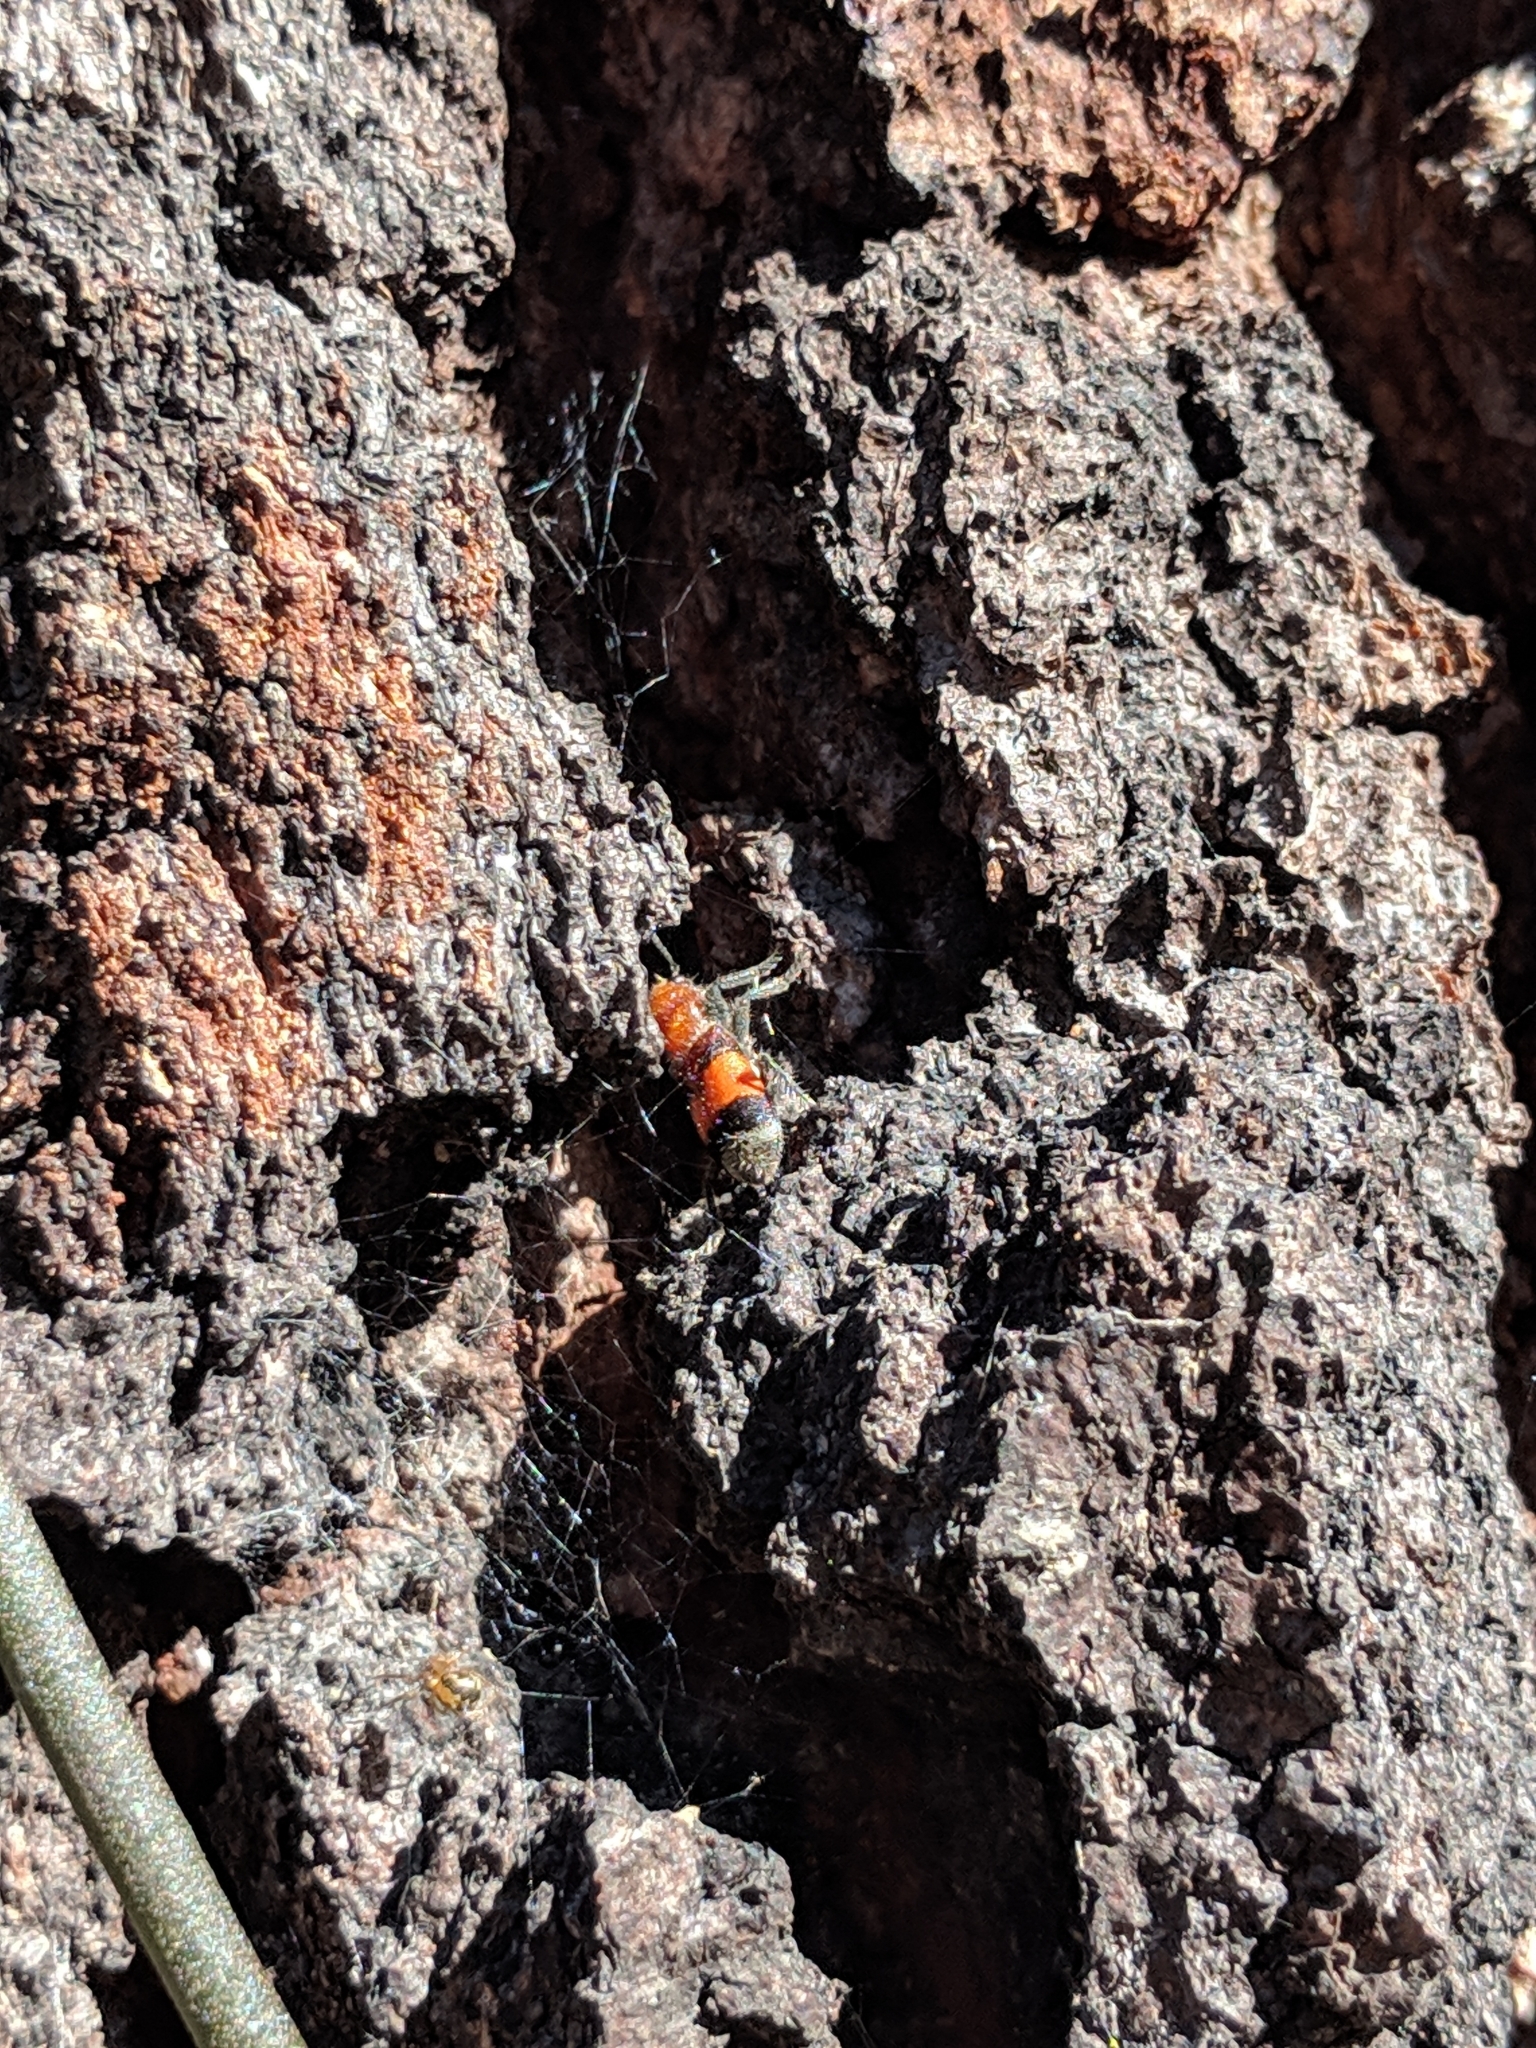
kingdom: Animalia
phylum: Arthropoda
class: Insecta
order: Coleoptera
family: Cleridae
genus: Enoclerus
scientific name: Enoclerus ichneumoneus
